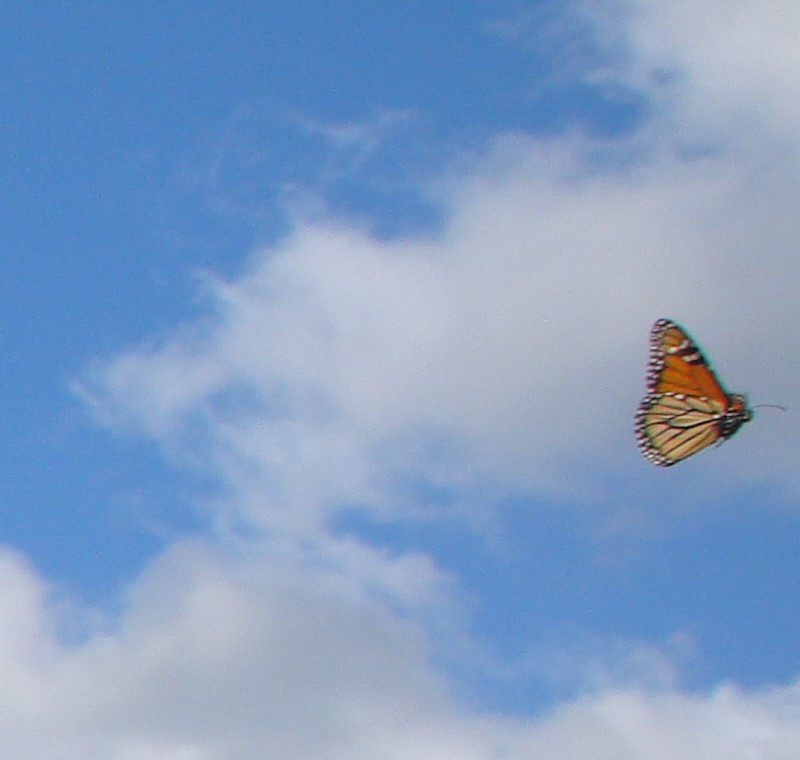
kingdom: Animalia
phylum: Arthropoda
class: Insecta
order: Lepidoptera
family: Nymphalidae
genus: Danaus
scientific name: Danaus plexippus
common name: Monarch
